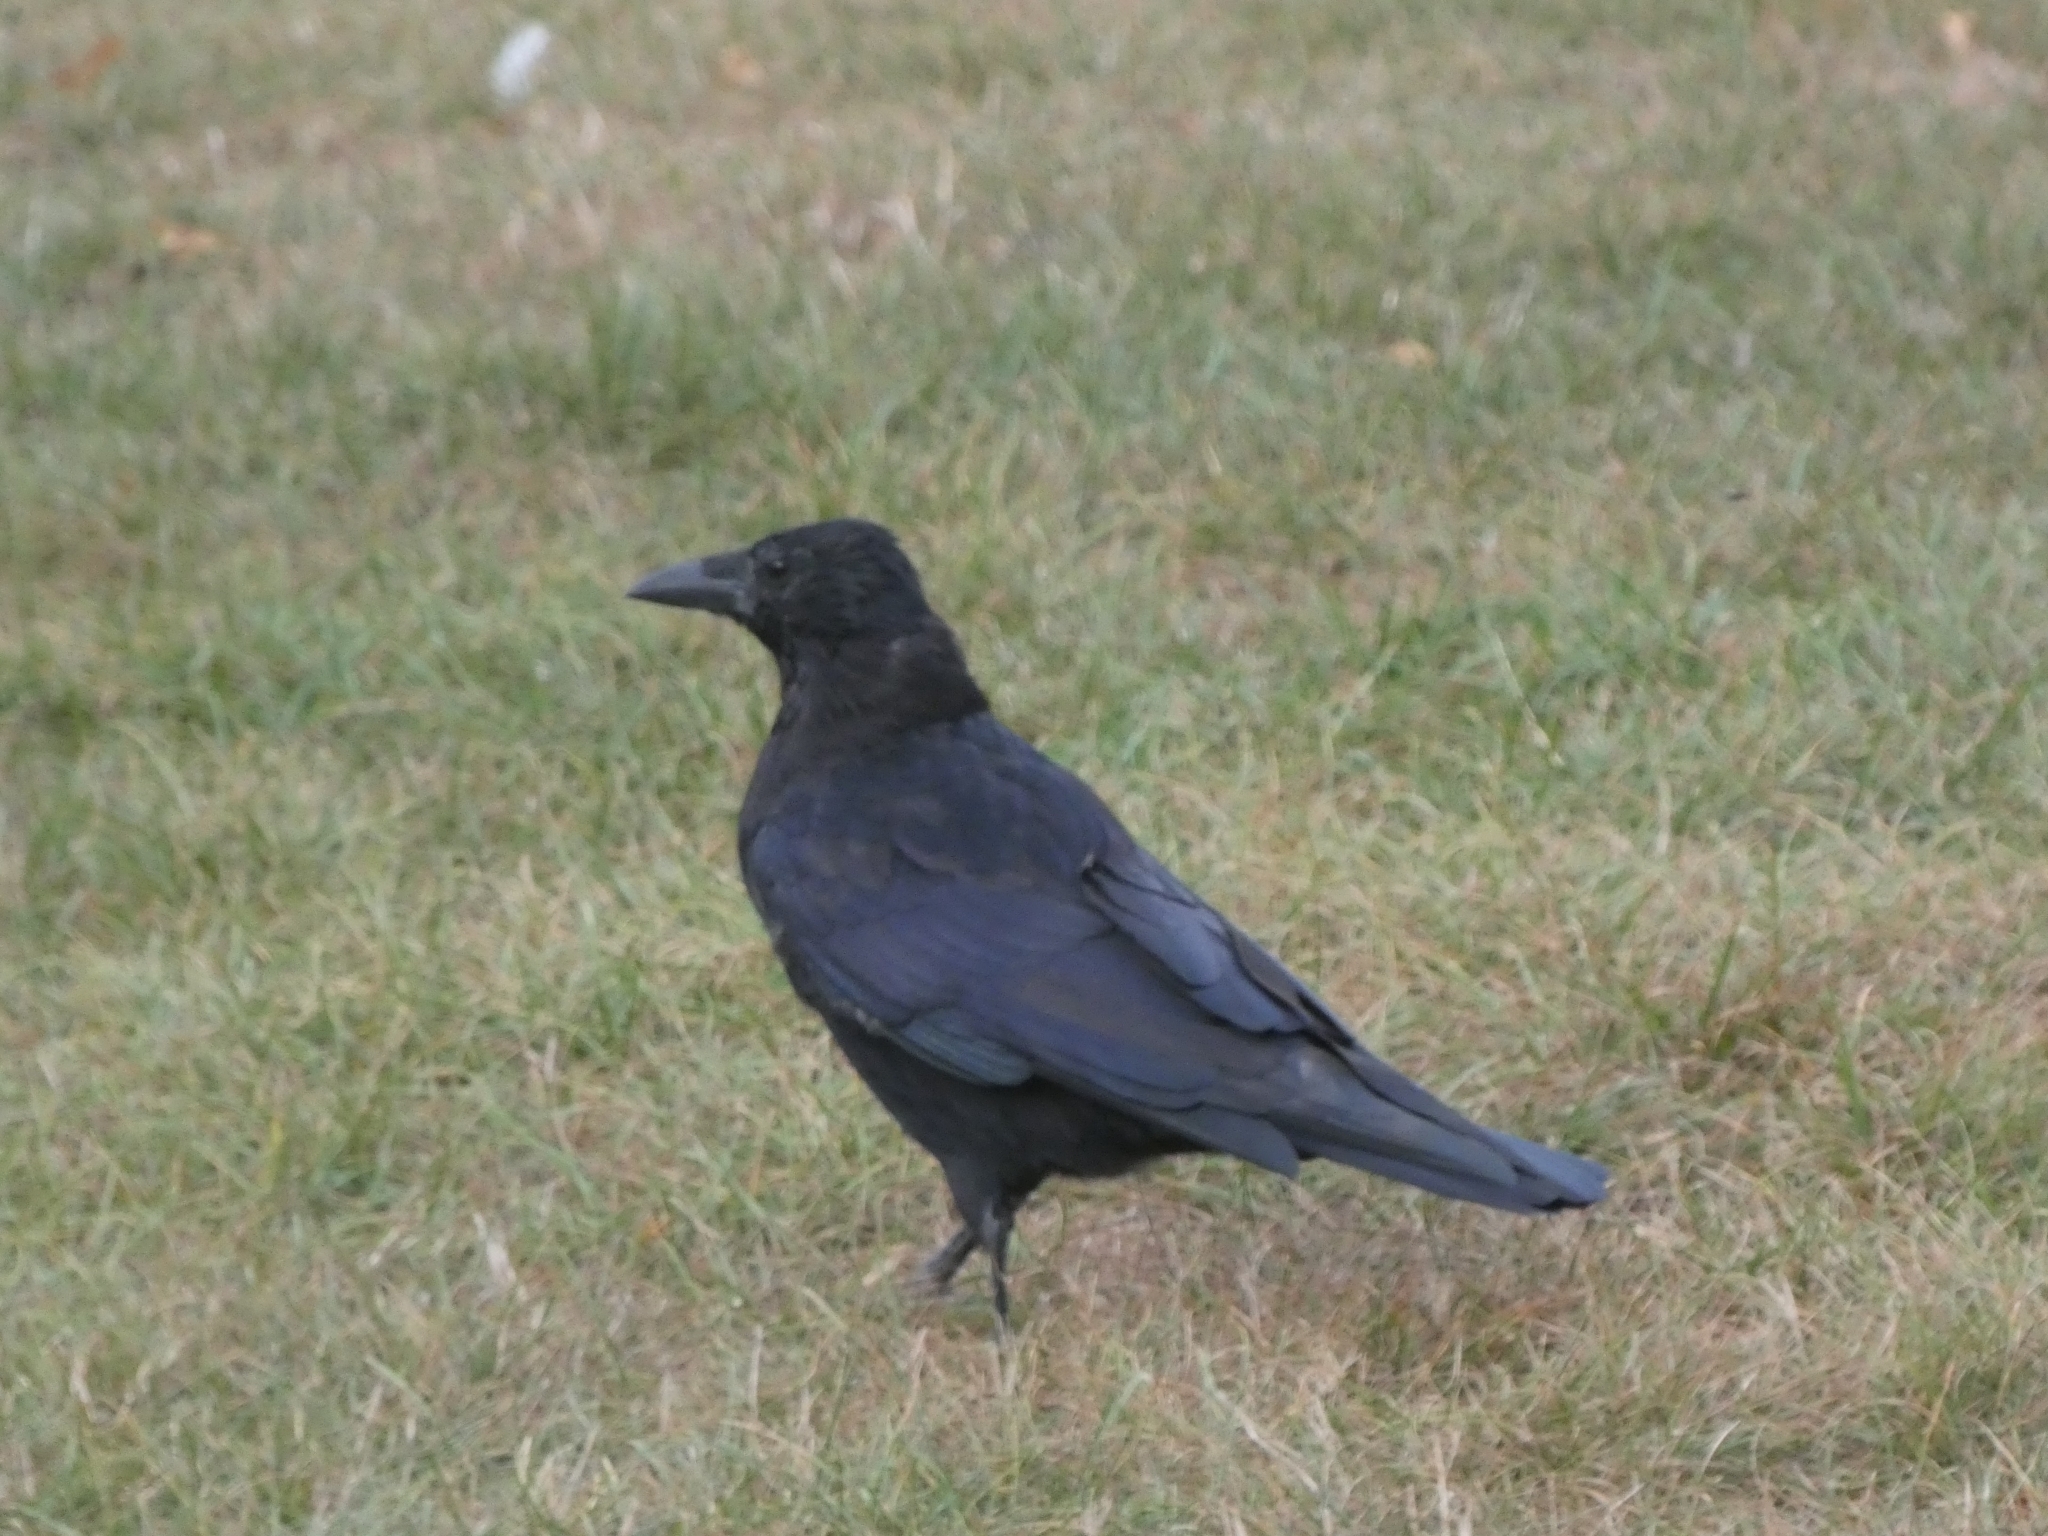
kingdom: Animalia
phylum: Chordata
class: Aves
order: Passeriformes
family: Corvidae
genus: Corvus
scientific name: Corvus corone
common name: Carrion crow
